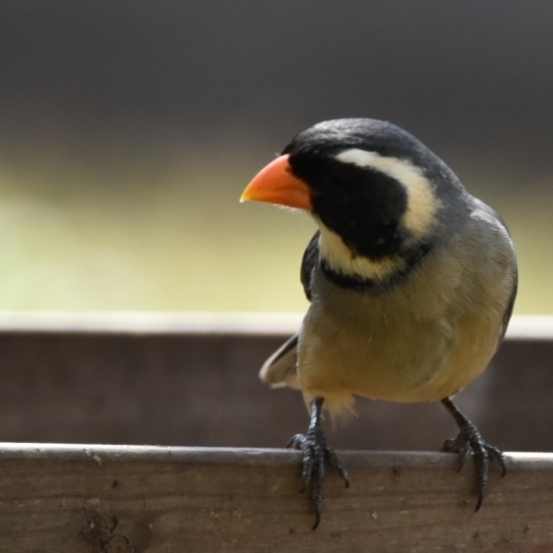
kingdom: Animalia
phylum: Chordata
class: Aves
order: Passeriformes
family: Thraupidae
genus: Saltator
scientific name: Saltator aurantiirostris
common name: Golden-billed saltator
